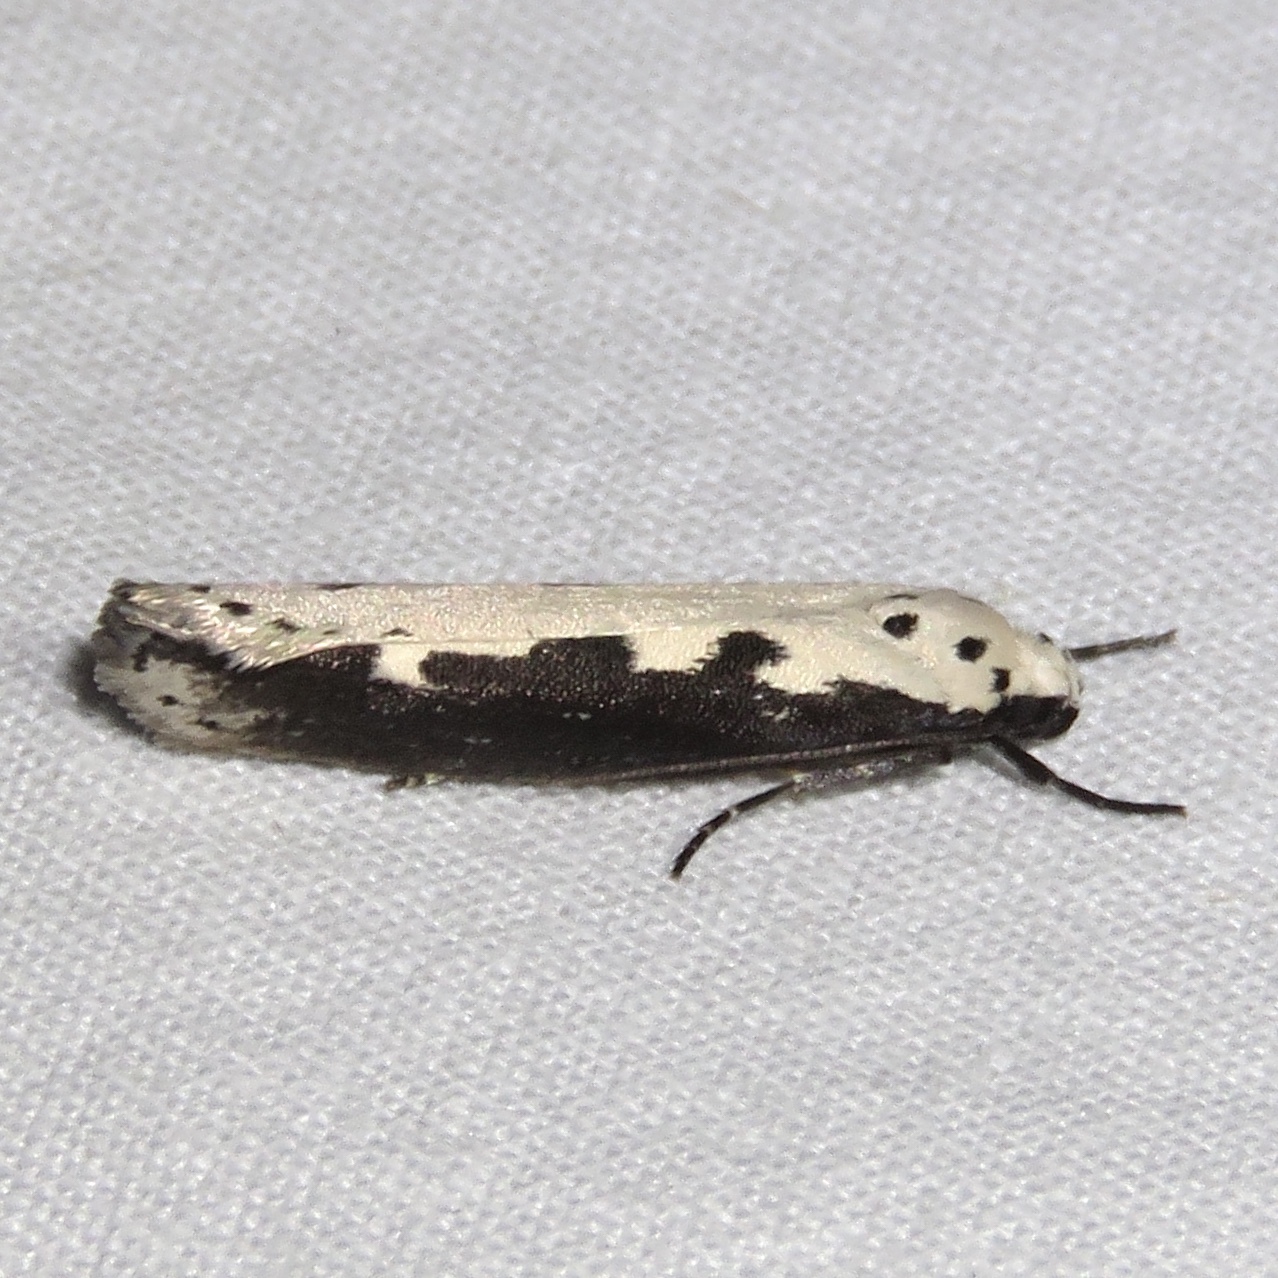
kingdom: Animalia
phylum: Arthropoda
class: Insecta
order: Lepidoptera
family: Ethmiidae
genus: Ethmia
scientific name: Ethmia bipunctella
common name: Bordered ermel
